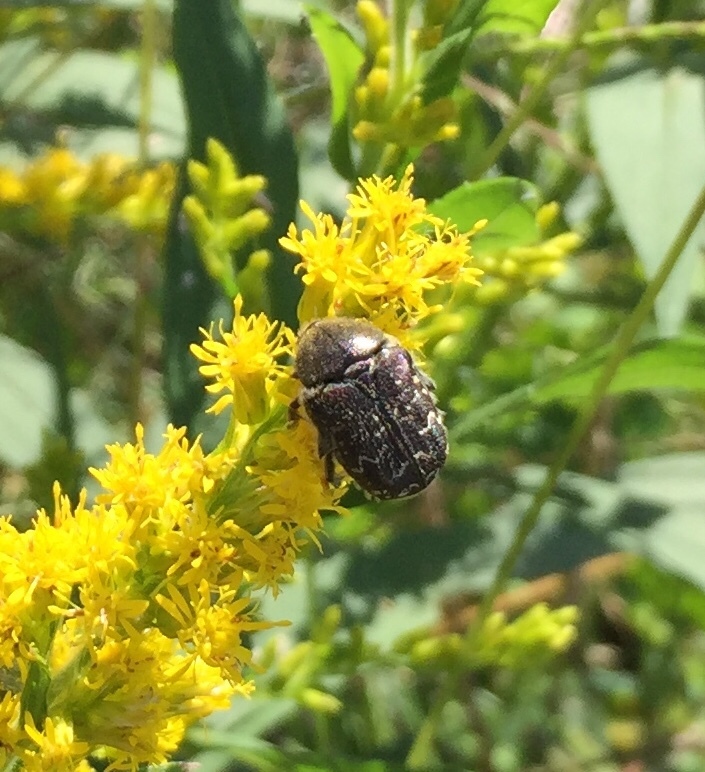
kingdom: Animalia
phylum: Arthropoda
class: Insecta
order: Coleoptera
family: Scarabaeidae
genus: Euphoria
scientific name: Euphoria sepulcralis
